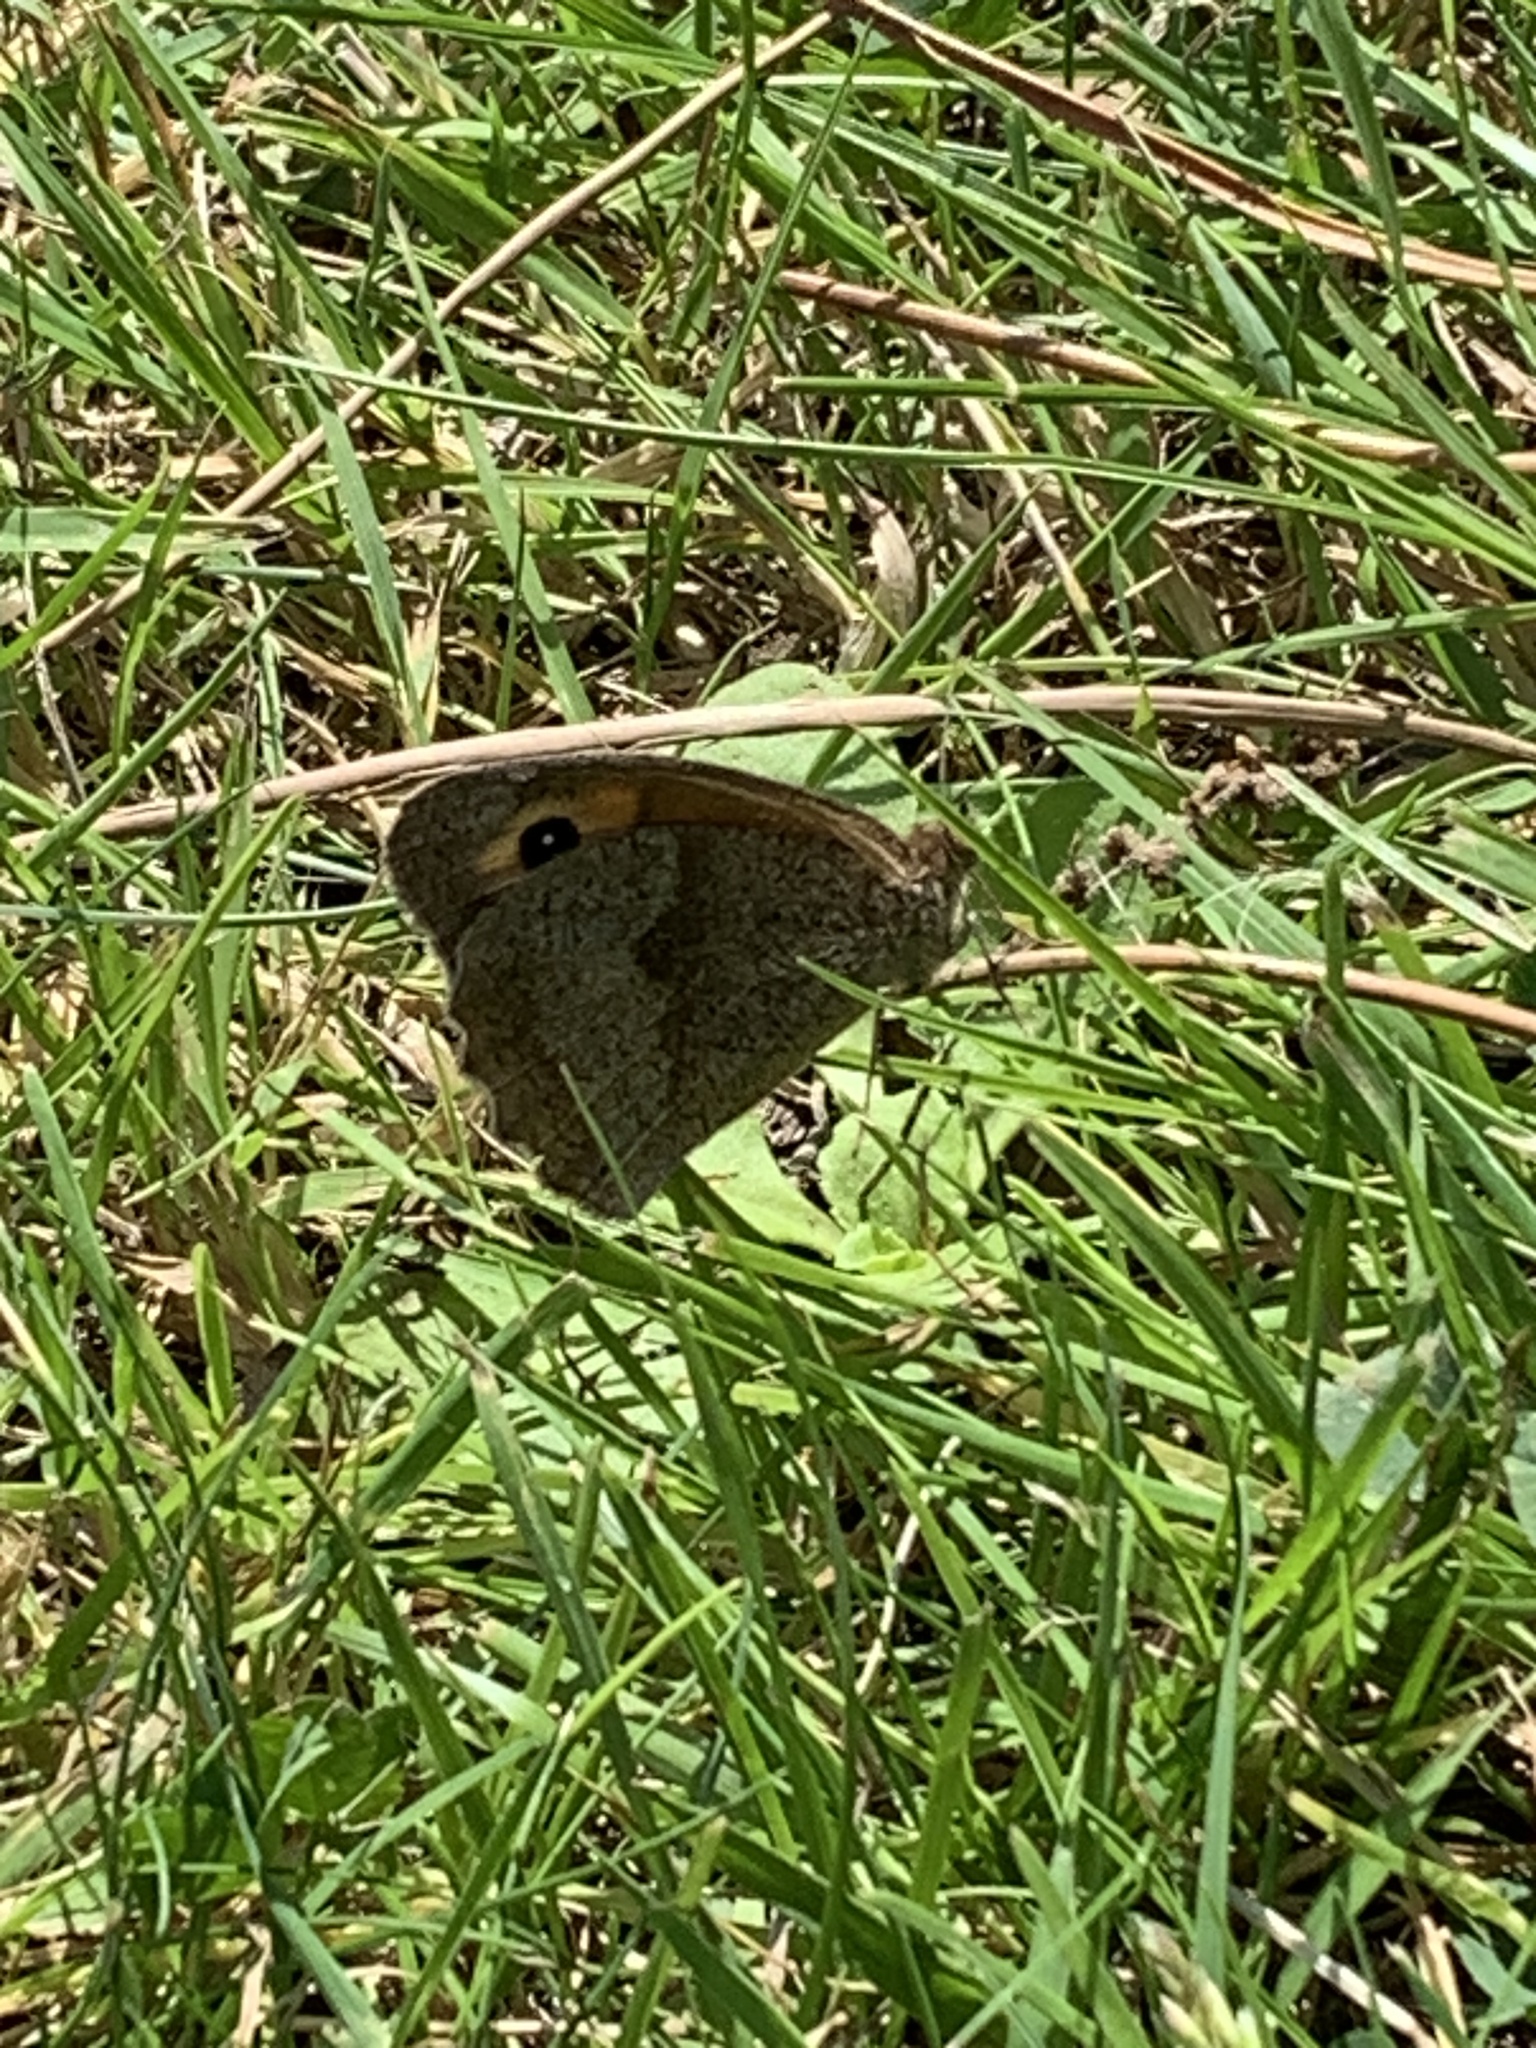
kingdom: Animalia
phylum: Arthropoda
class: Insecta
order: Lepidoptera
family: Nymphalidae
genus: Maniola
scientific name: Maniola jurtina
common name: Meadow brown
